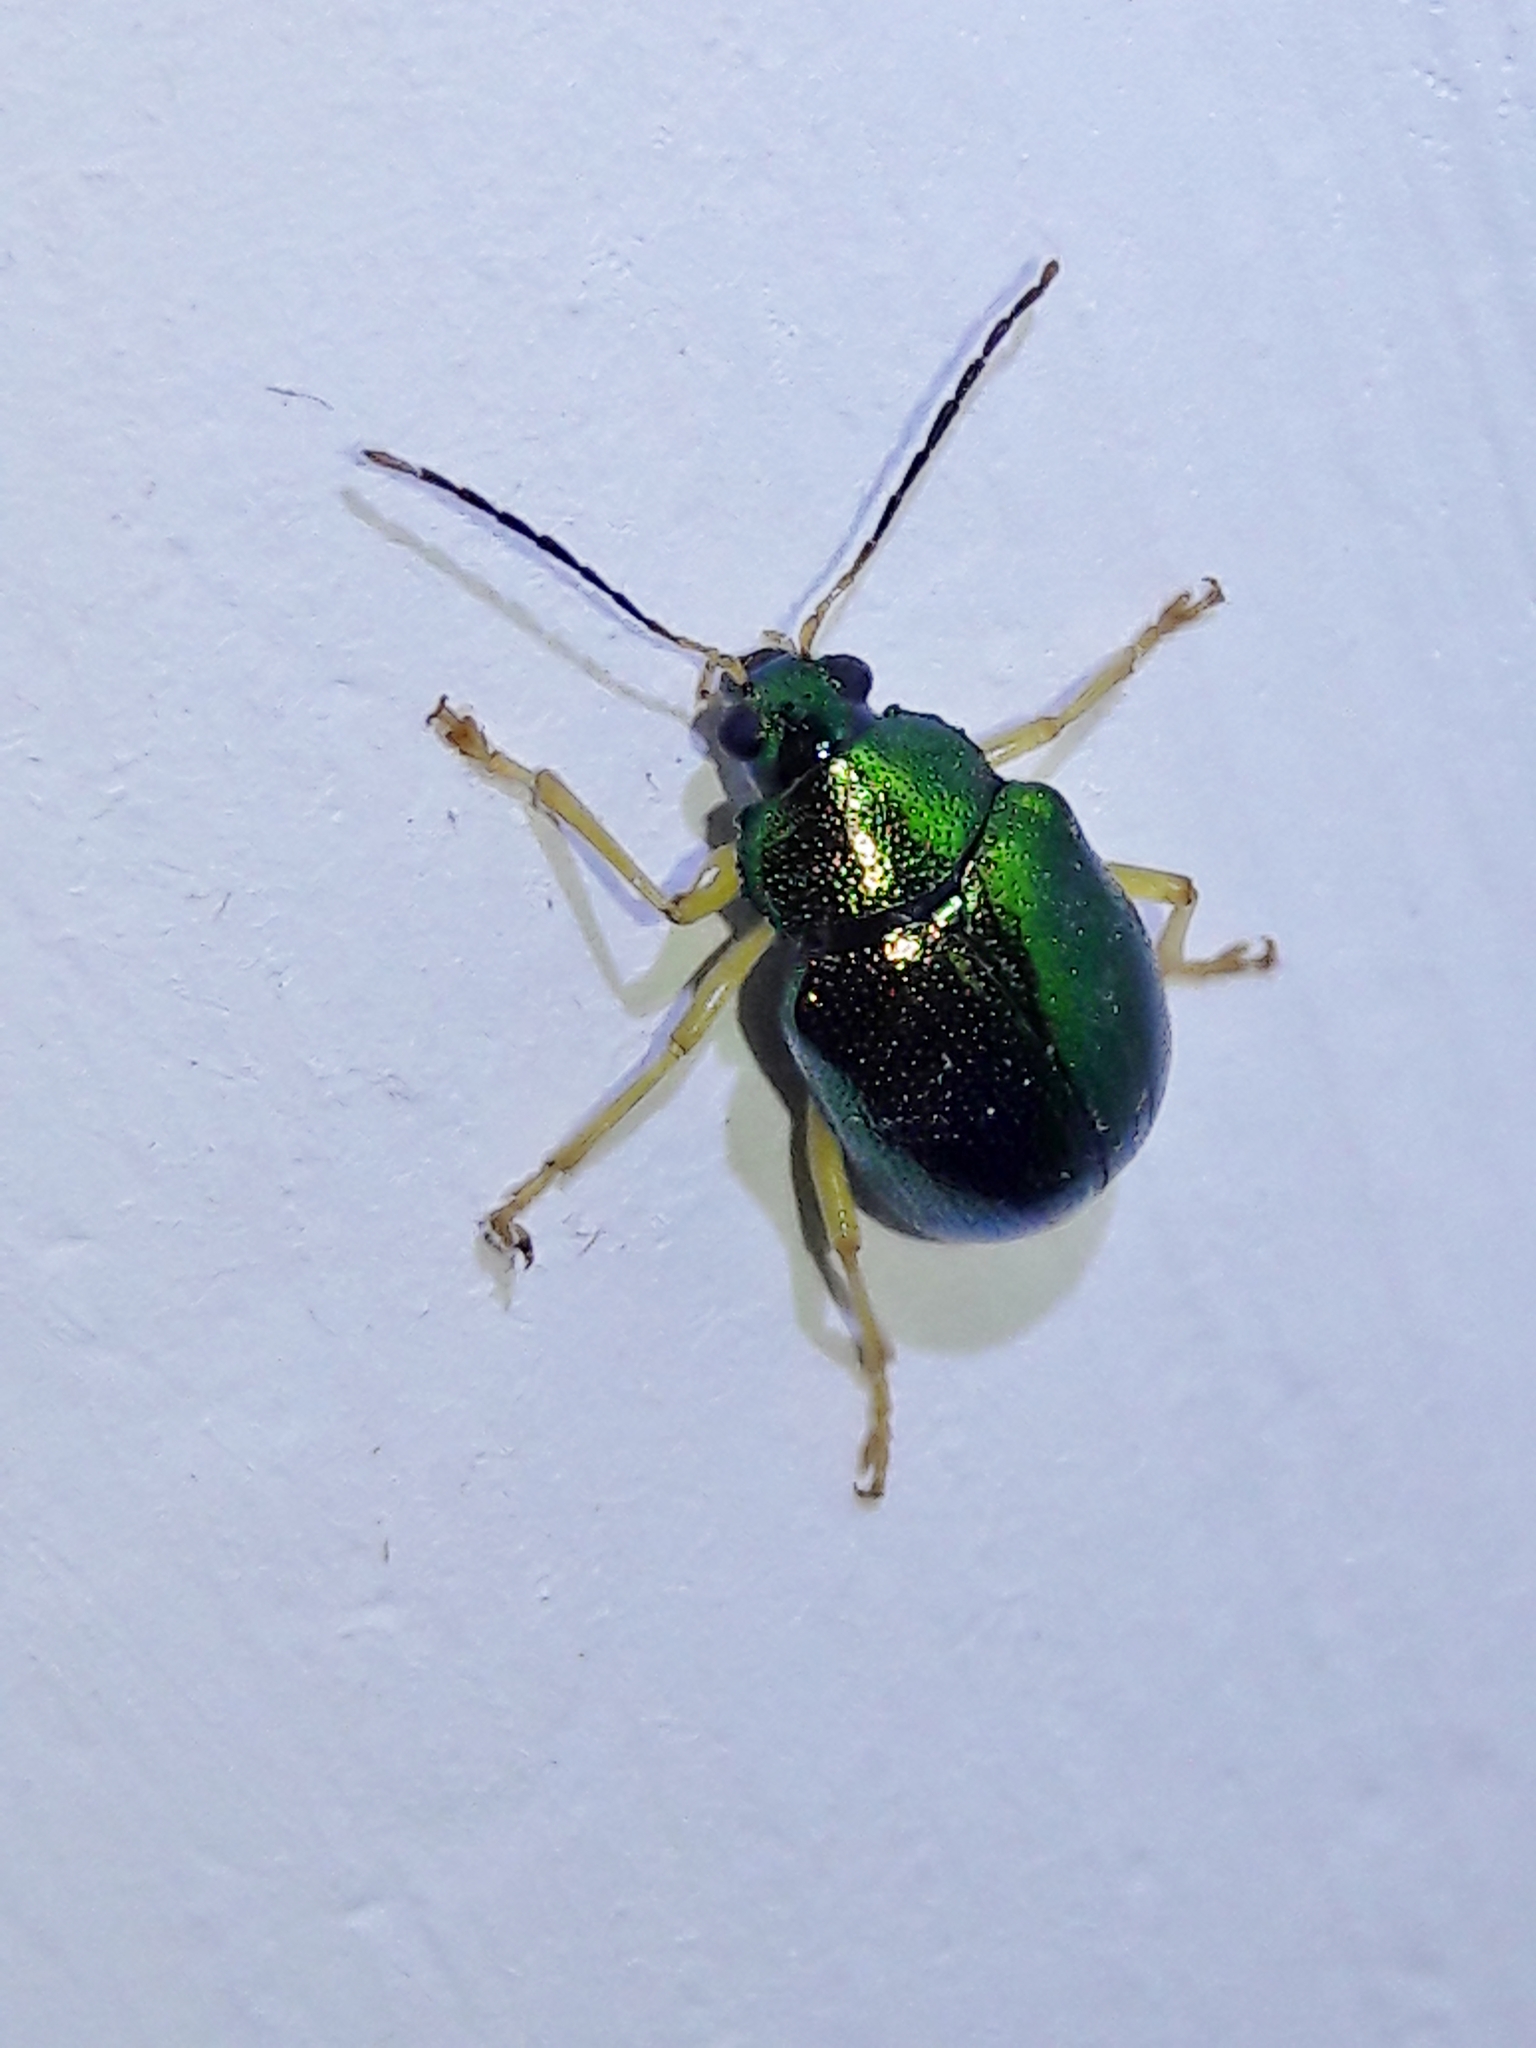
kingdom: Animalia
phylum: Arthropoda
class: Insecta
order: Coleoptera
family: Chrysomelidae
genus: Colaspis
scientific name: Colaspis
